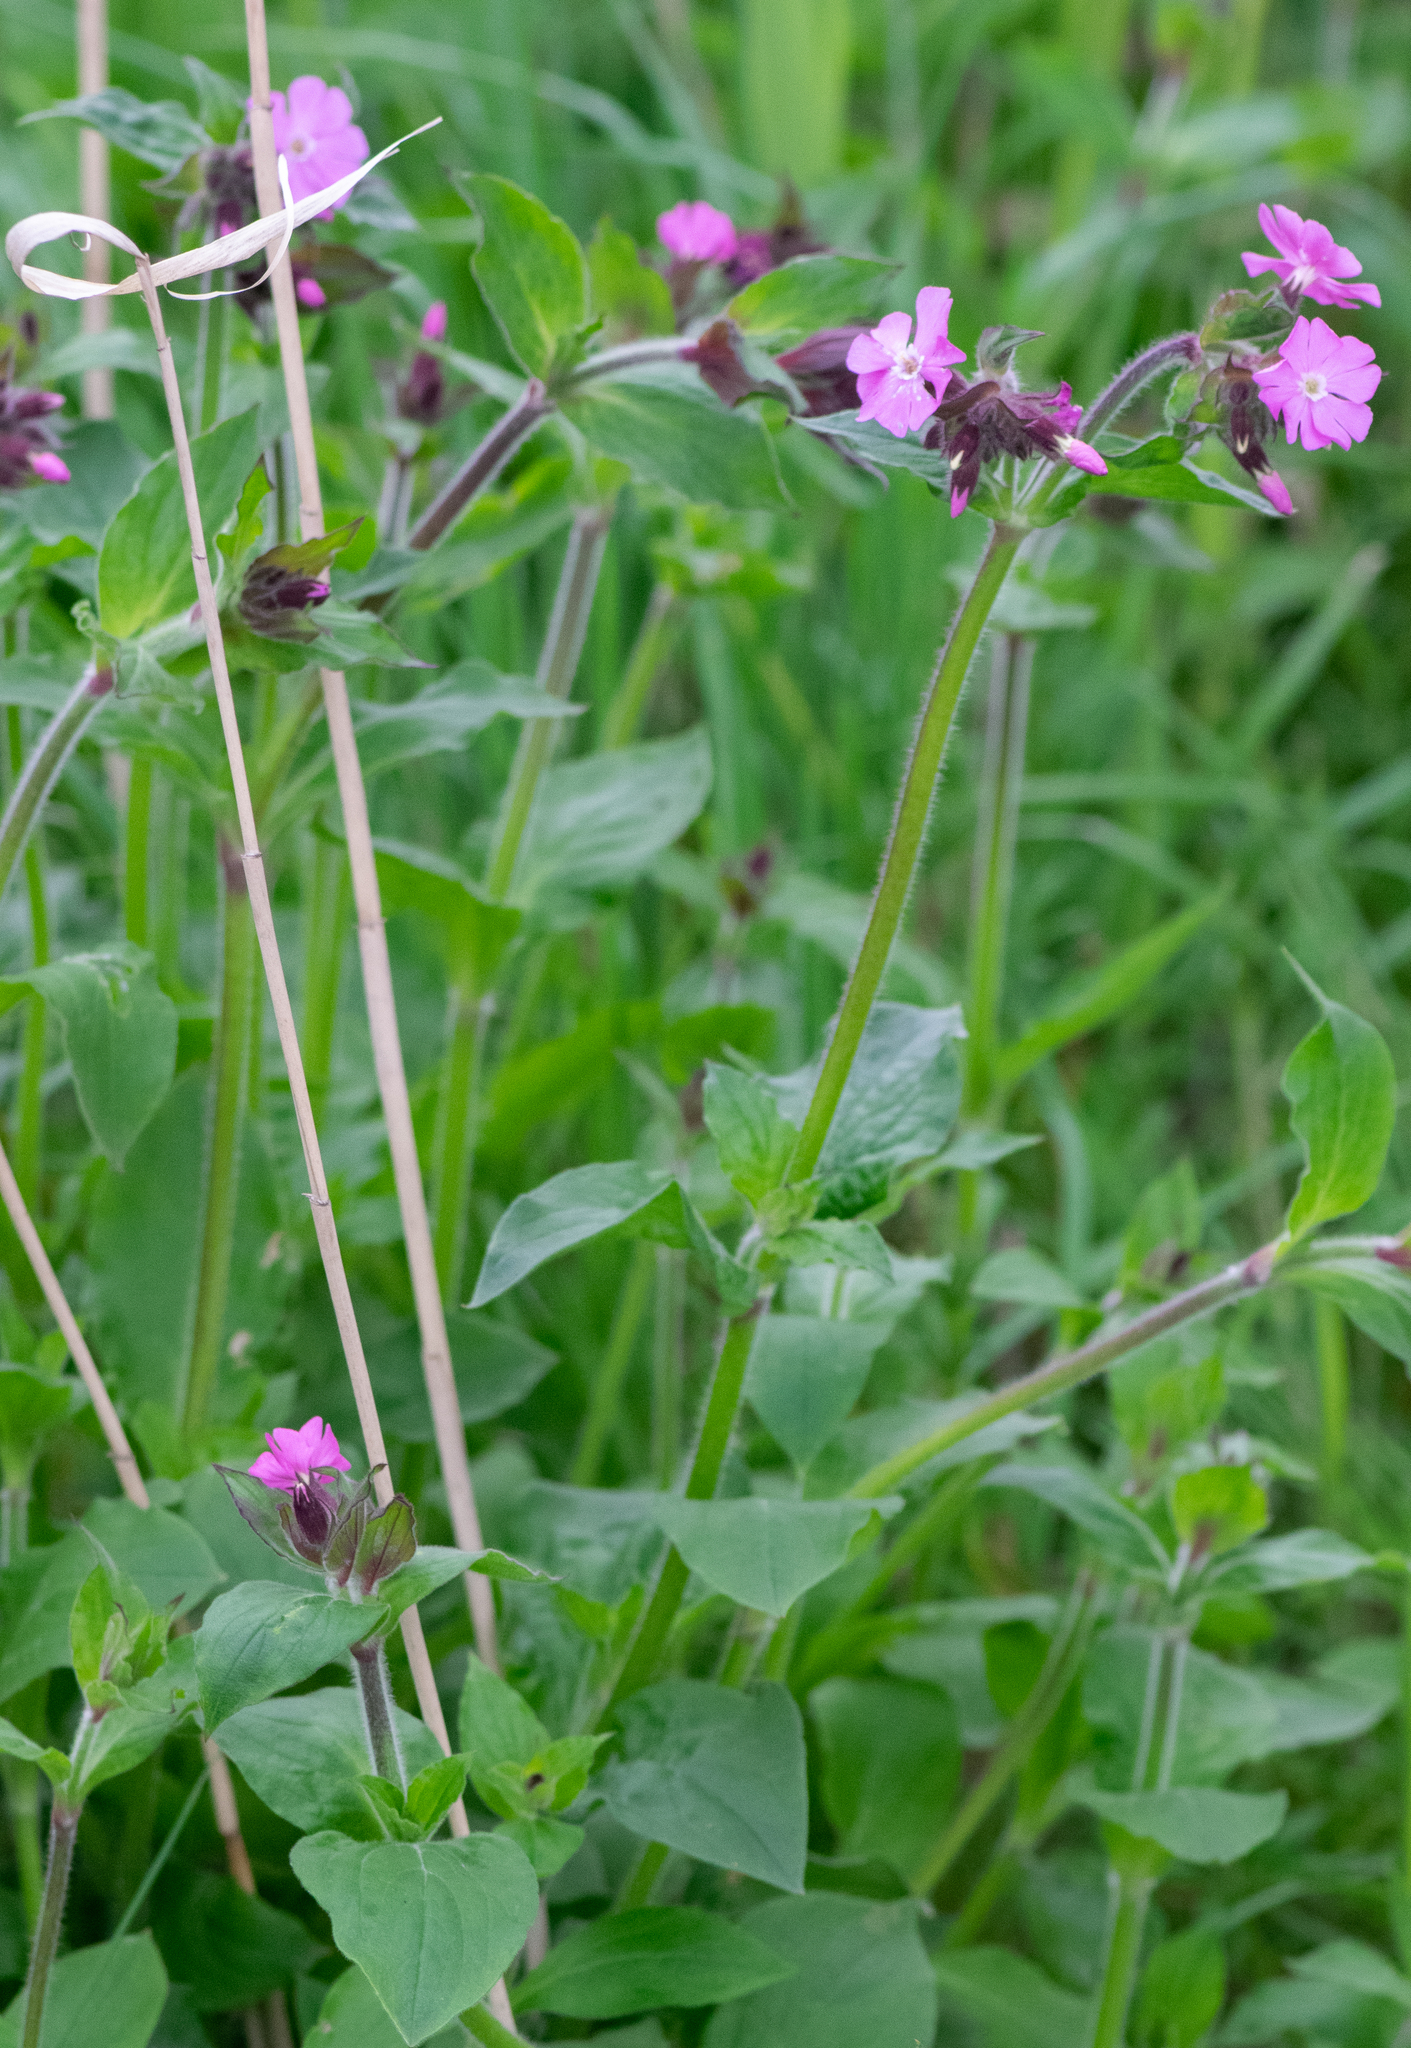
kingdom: Plantae
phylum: Tracheophyta
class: Magnoliopsida
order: Caryophyllales
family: Caryophyllaceae
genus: Silene
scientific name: Silene dioica
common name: Red campion
